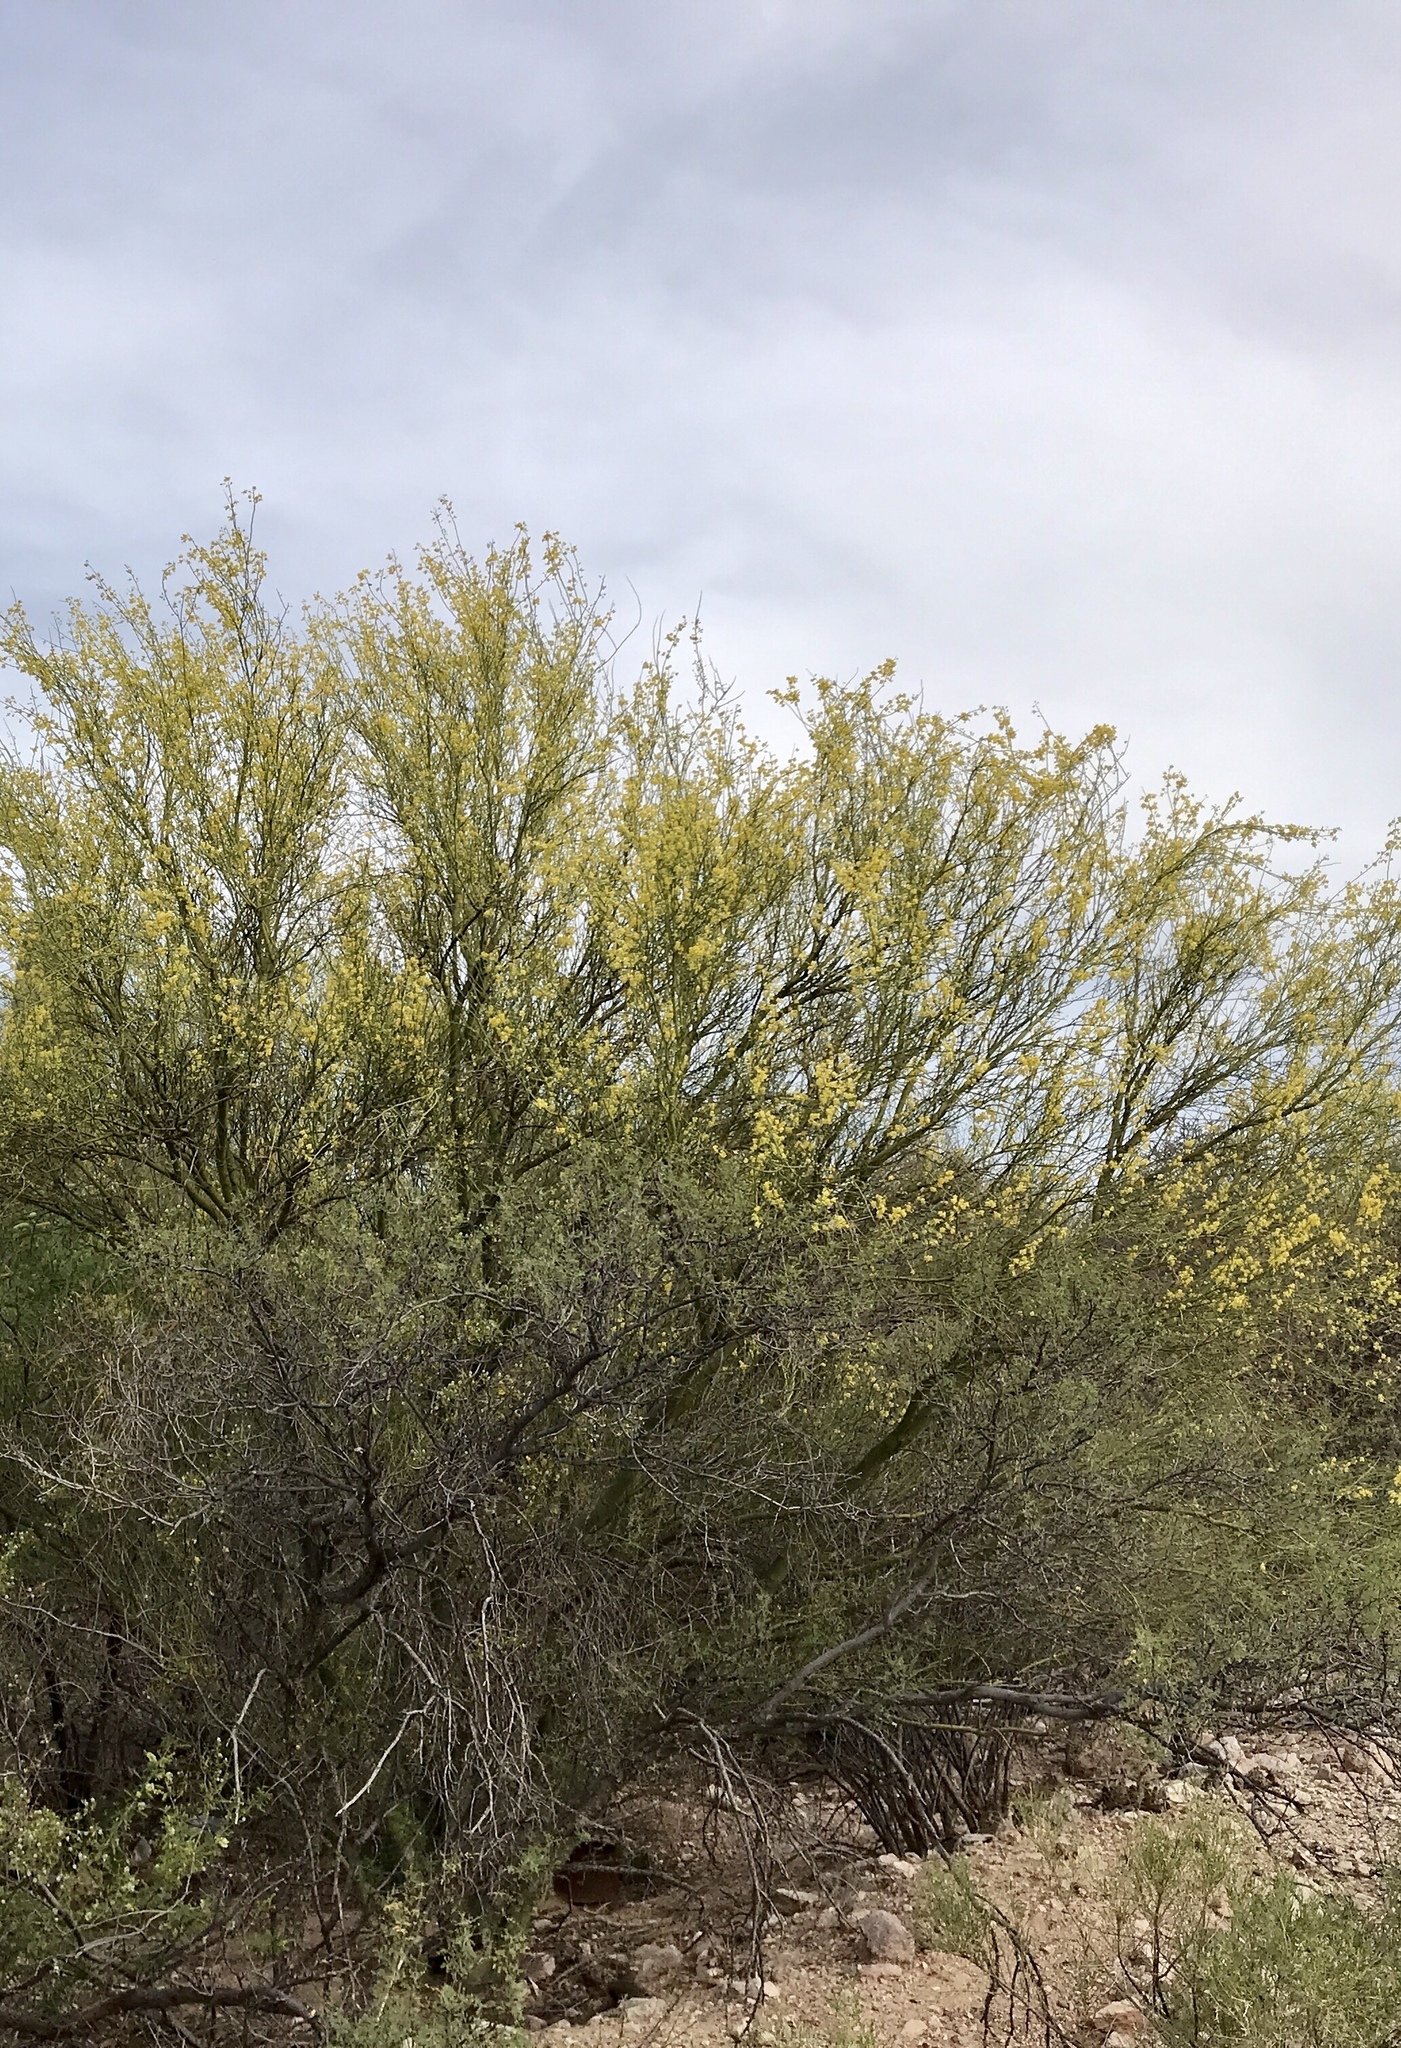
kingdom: Plantae
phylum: Tracheophyta
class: Magnoliopsida
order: Fabales
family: Fabaceae
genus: Parkinsonia
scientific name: Parkinsonia microphylla
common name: Yellow paloverde
